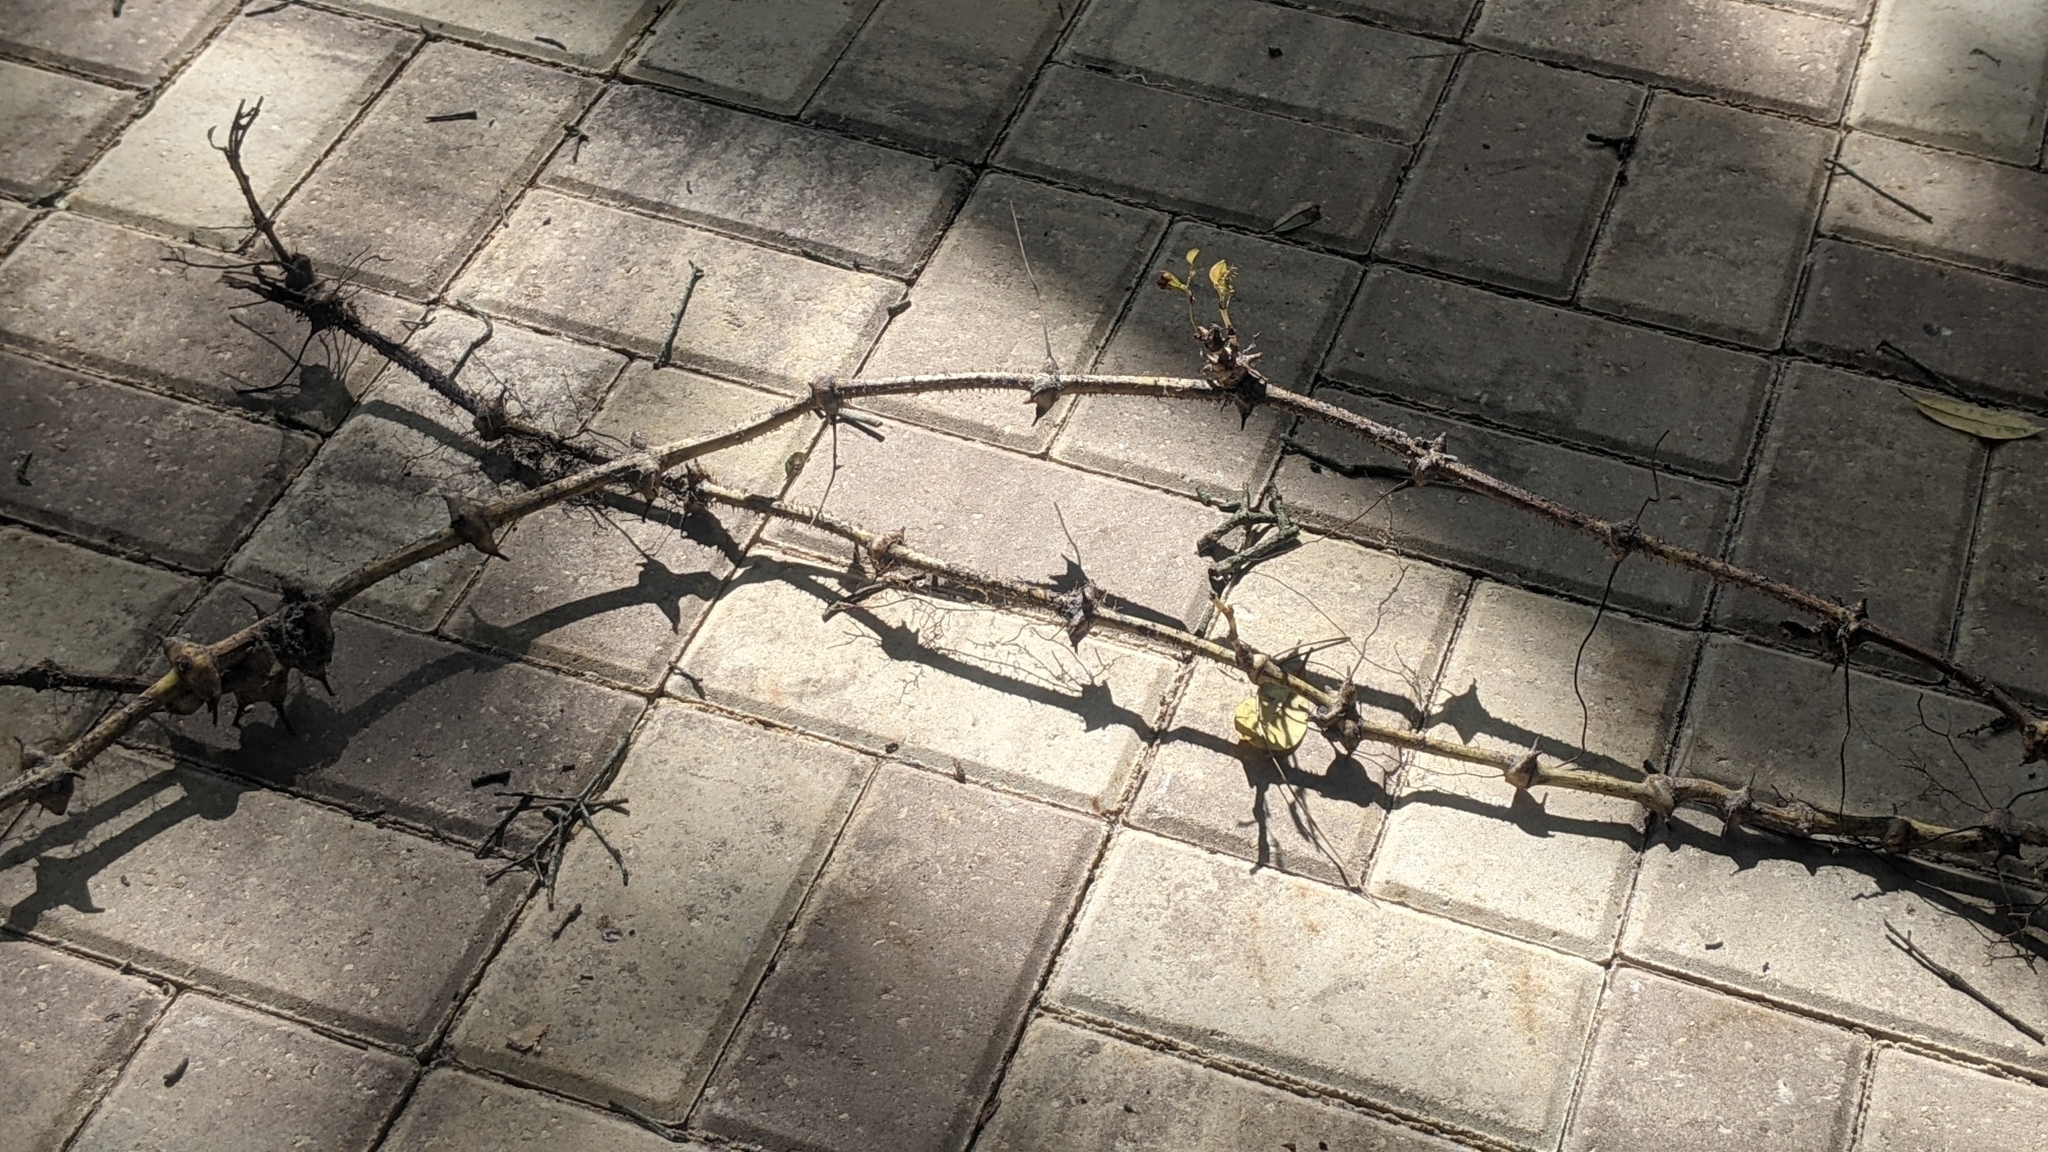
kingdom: Plantae
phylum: Tracheophyta
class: Liliopsida
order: Liliales
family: Smilacaceae
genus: Smilax
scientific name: Smilax glauca
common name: Cat greenbrier
